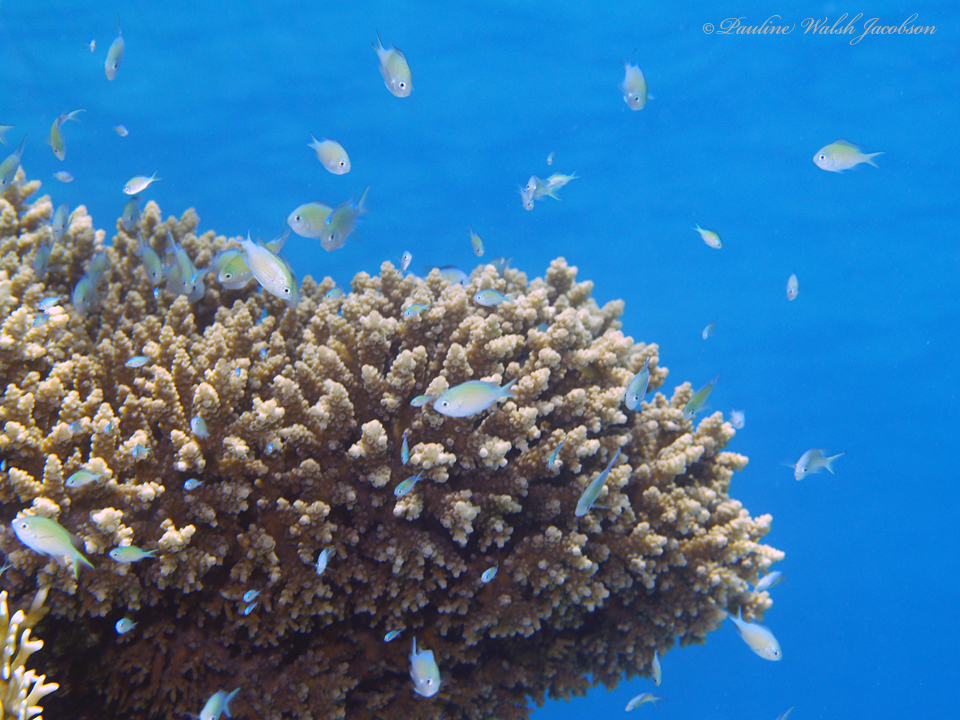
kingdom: Animalia
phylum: Chordata
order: Perciformes
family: Pomacentridae
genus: Chromis
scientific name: Chromis viridis
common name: Blue-green chromis
